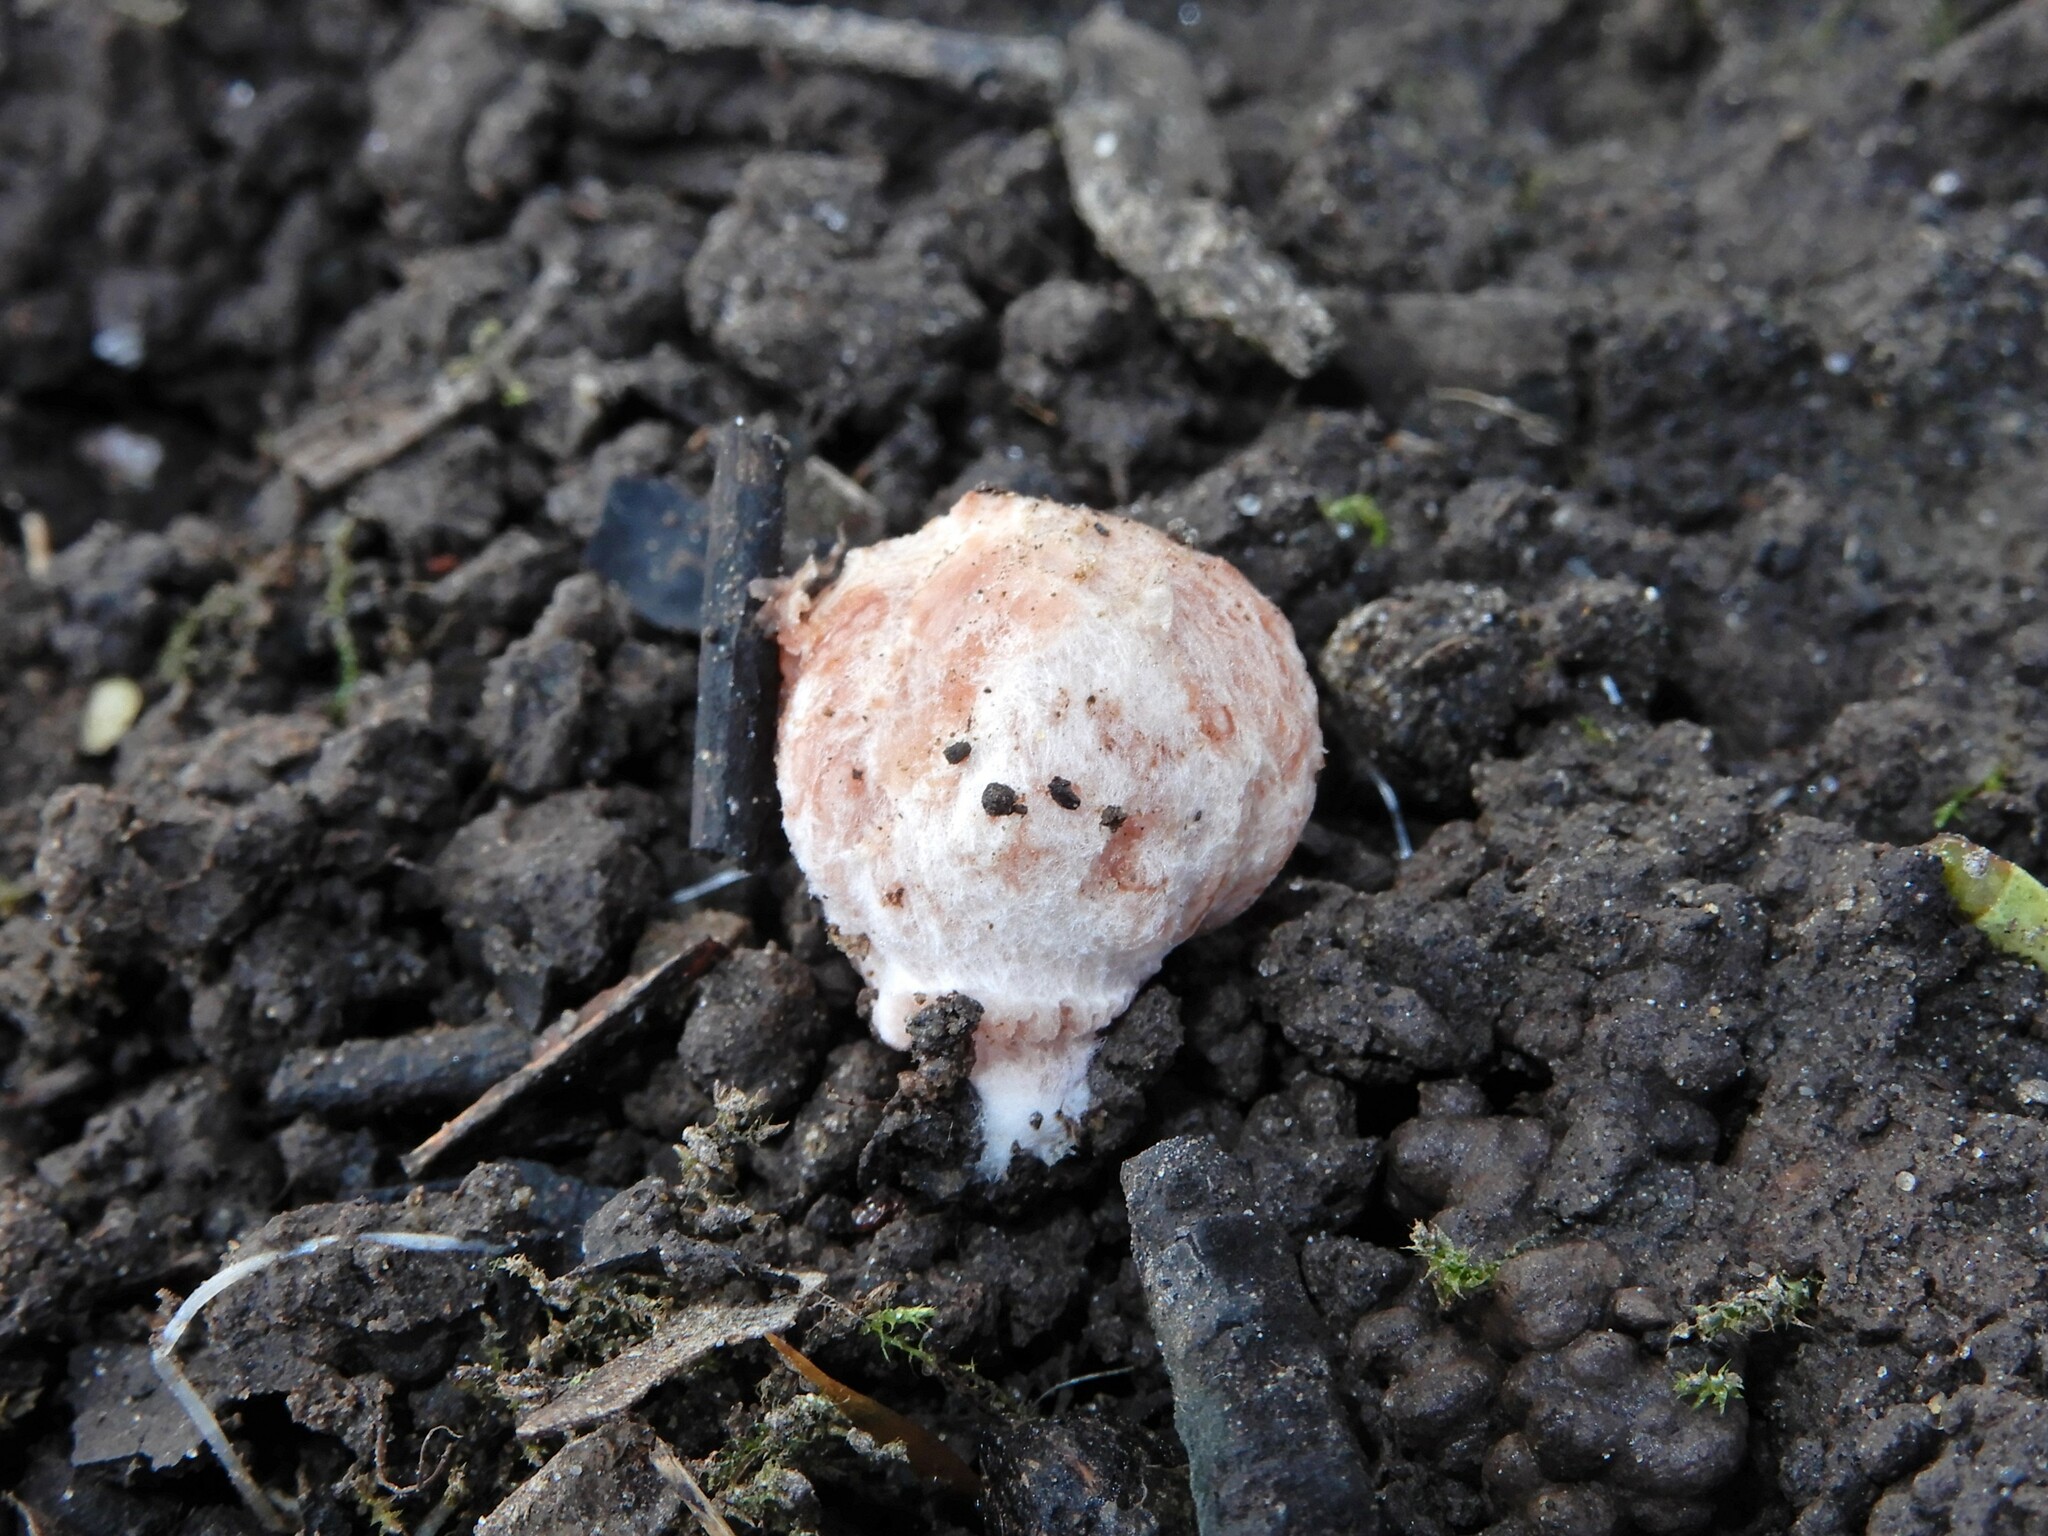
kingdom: Fungi
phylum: Basidiomycota
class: Agaricomycetes
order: Agaricales
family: Hydnangiaceae
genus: Hydnangium
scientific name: Hydnangium carneum
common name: Flesh-pink truffle
